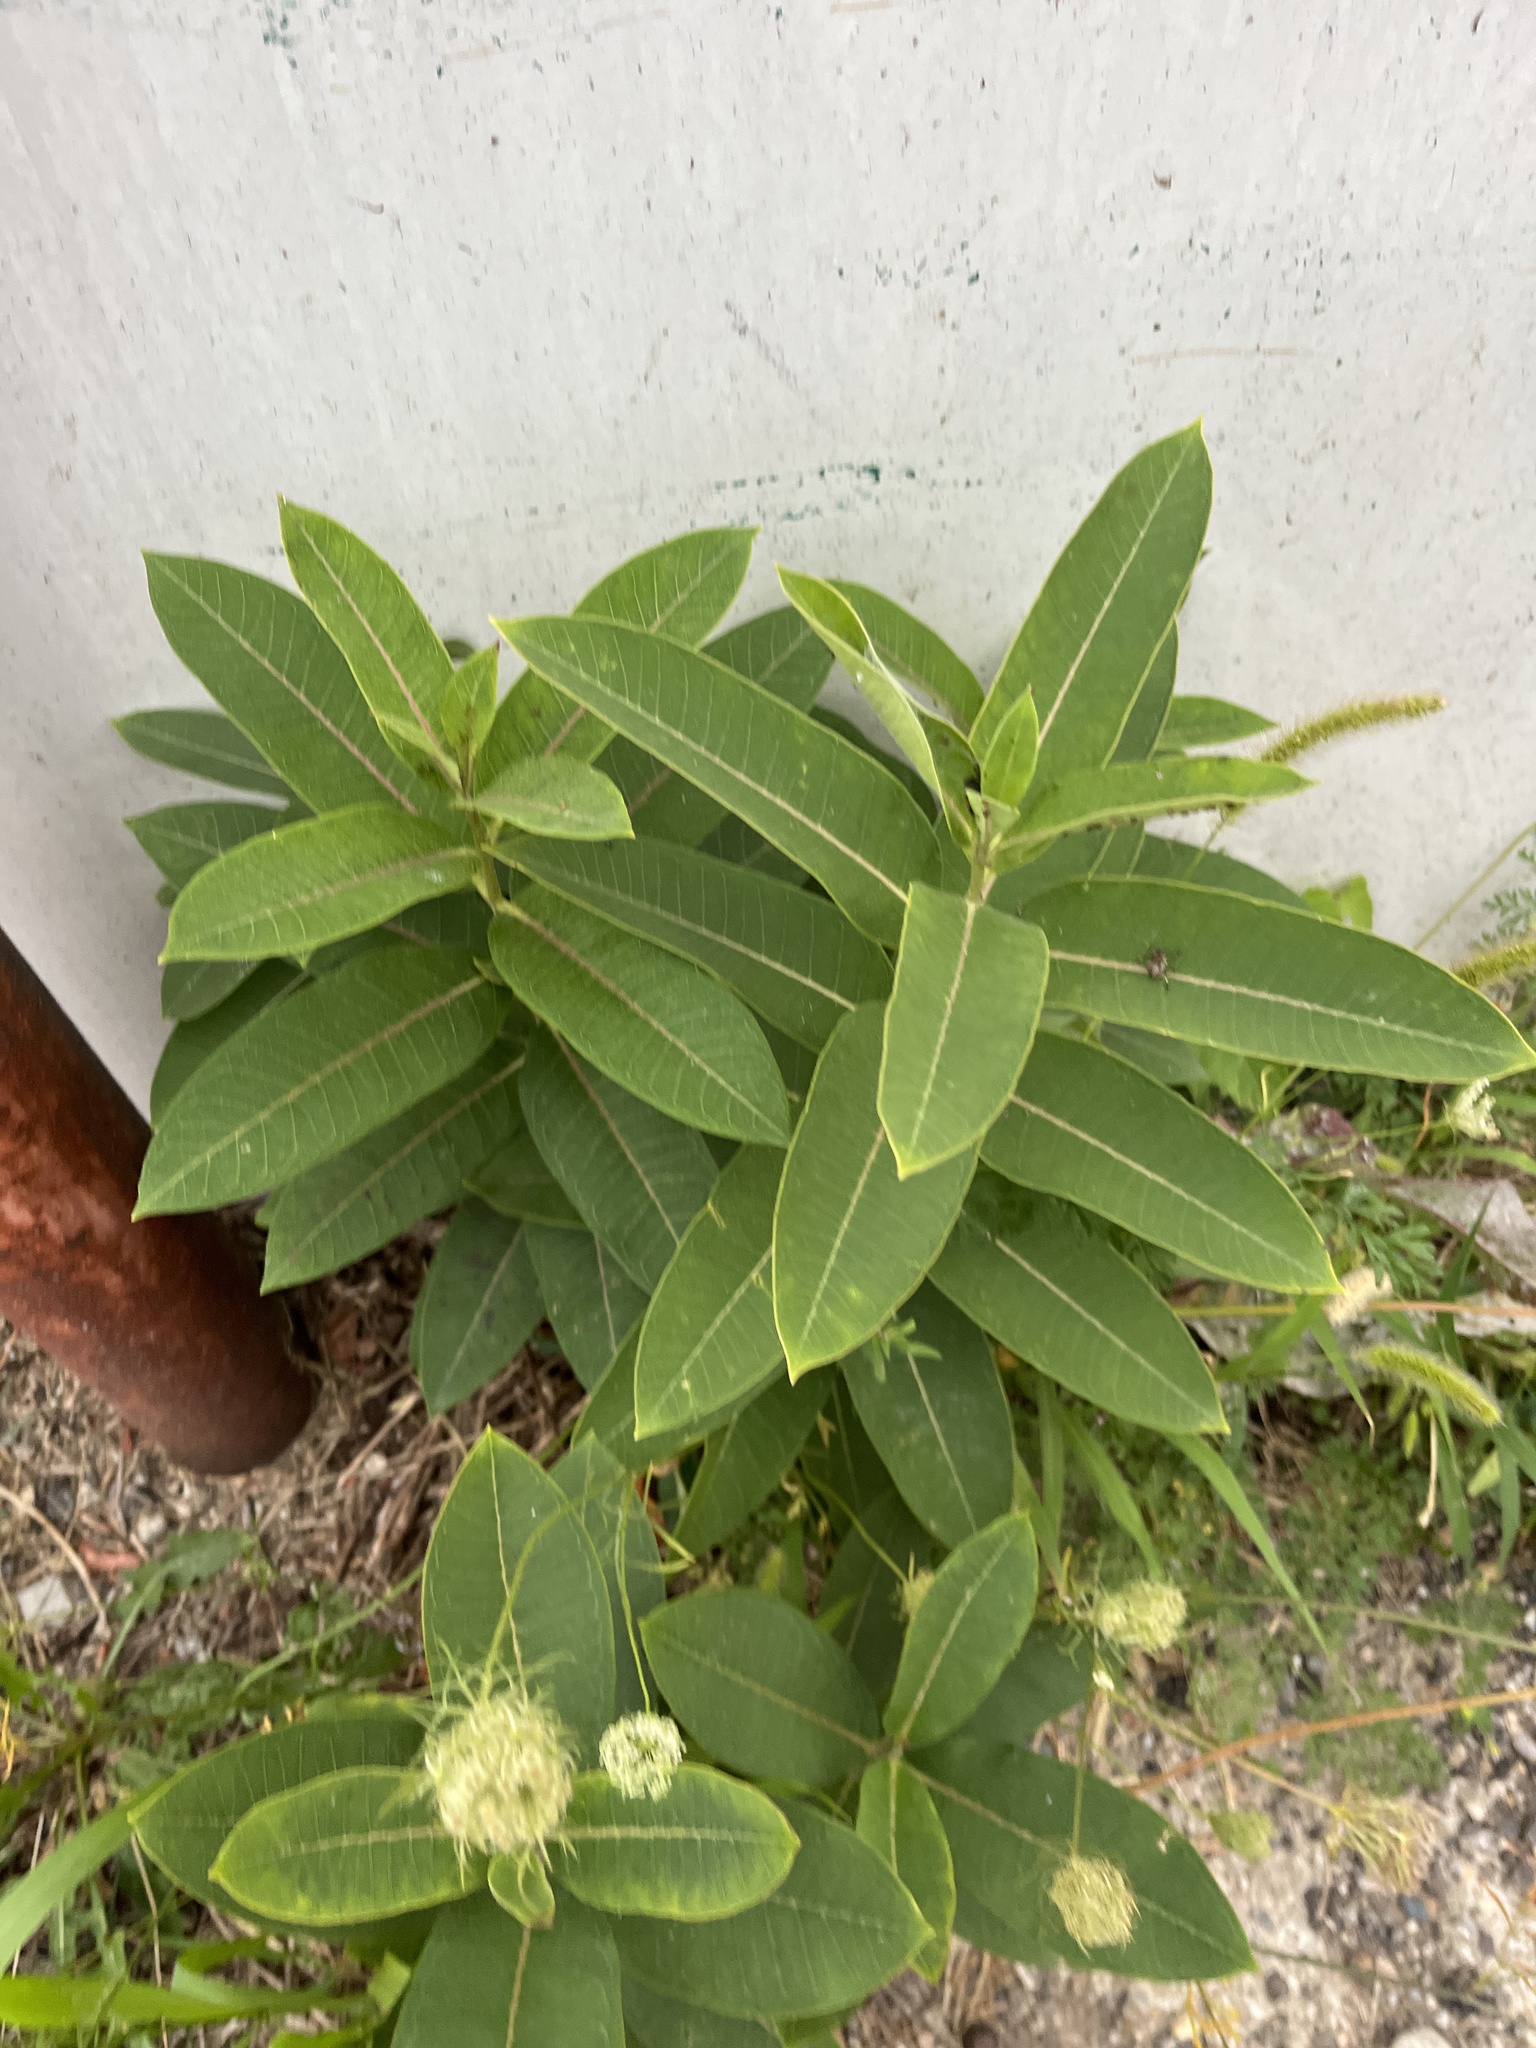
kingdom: Plantae
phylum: Tracheophyta
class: Magnoliopsida
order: Gentianales
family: Apocynaceae
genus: Asclepias
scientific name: Asclepias syriaca
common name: Common milkweed
